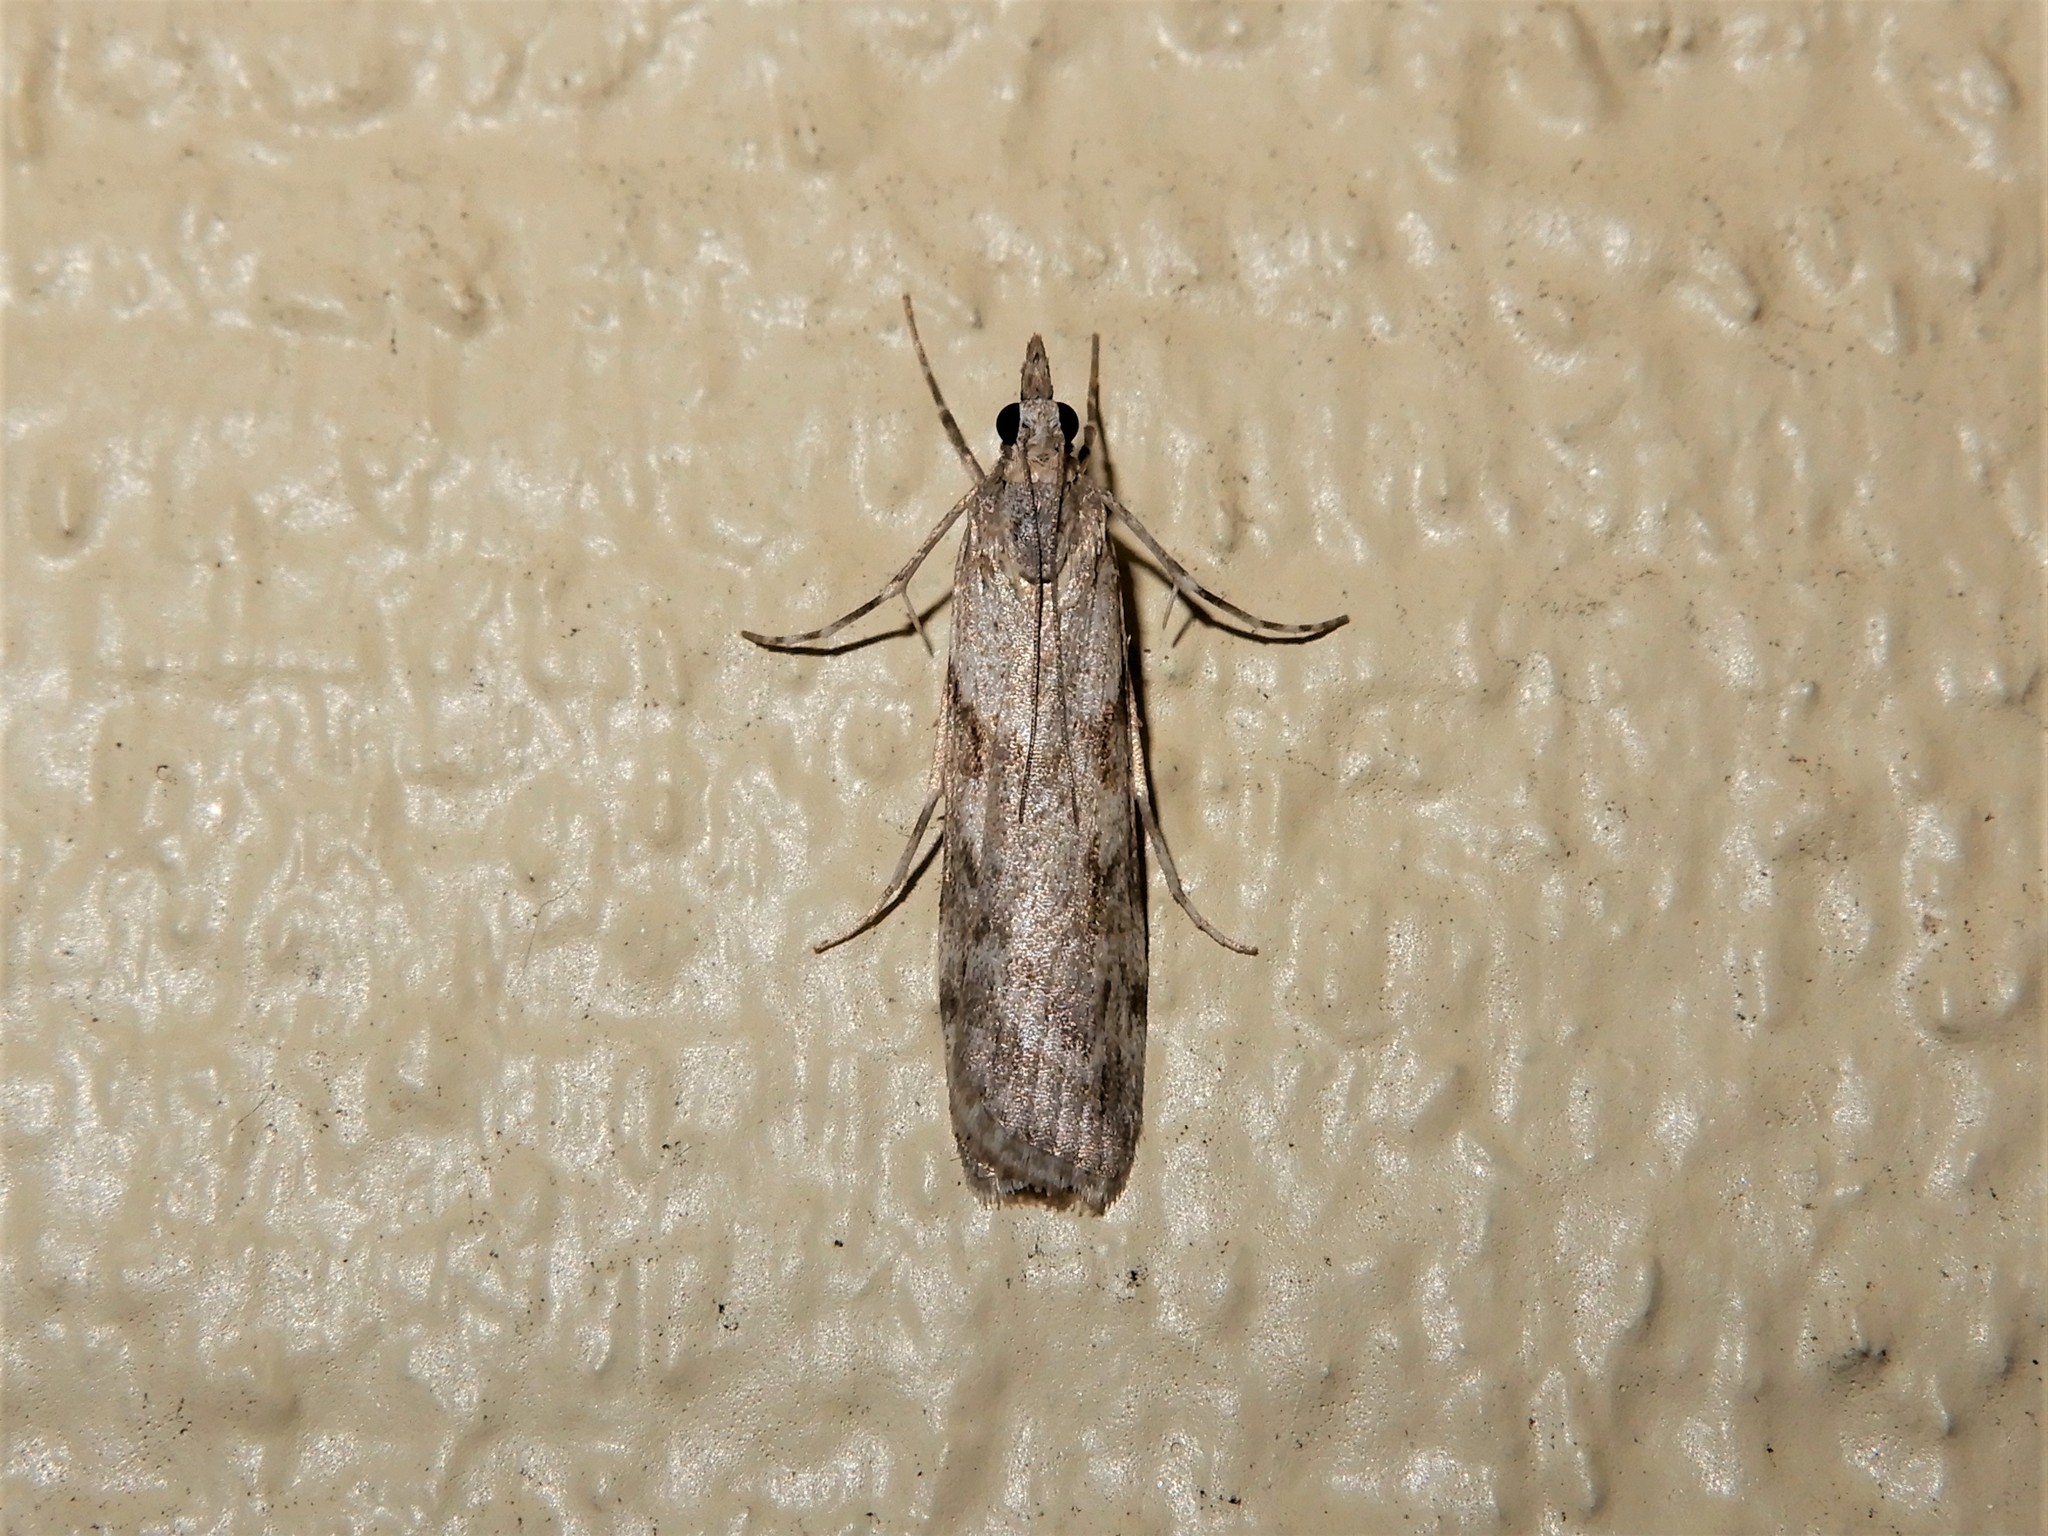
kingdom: Animalia
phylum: Arthropoda
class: Insecta
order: Lepidoptera
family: Crambidae
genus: Scoparia
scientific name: Scoparia halopis
